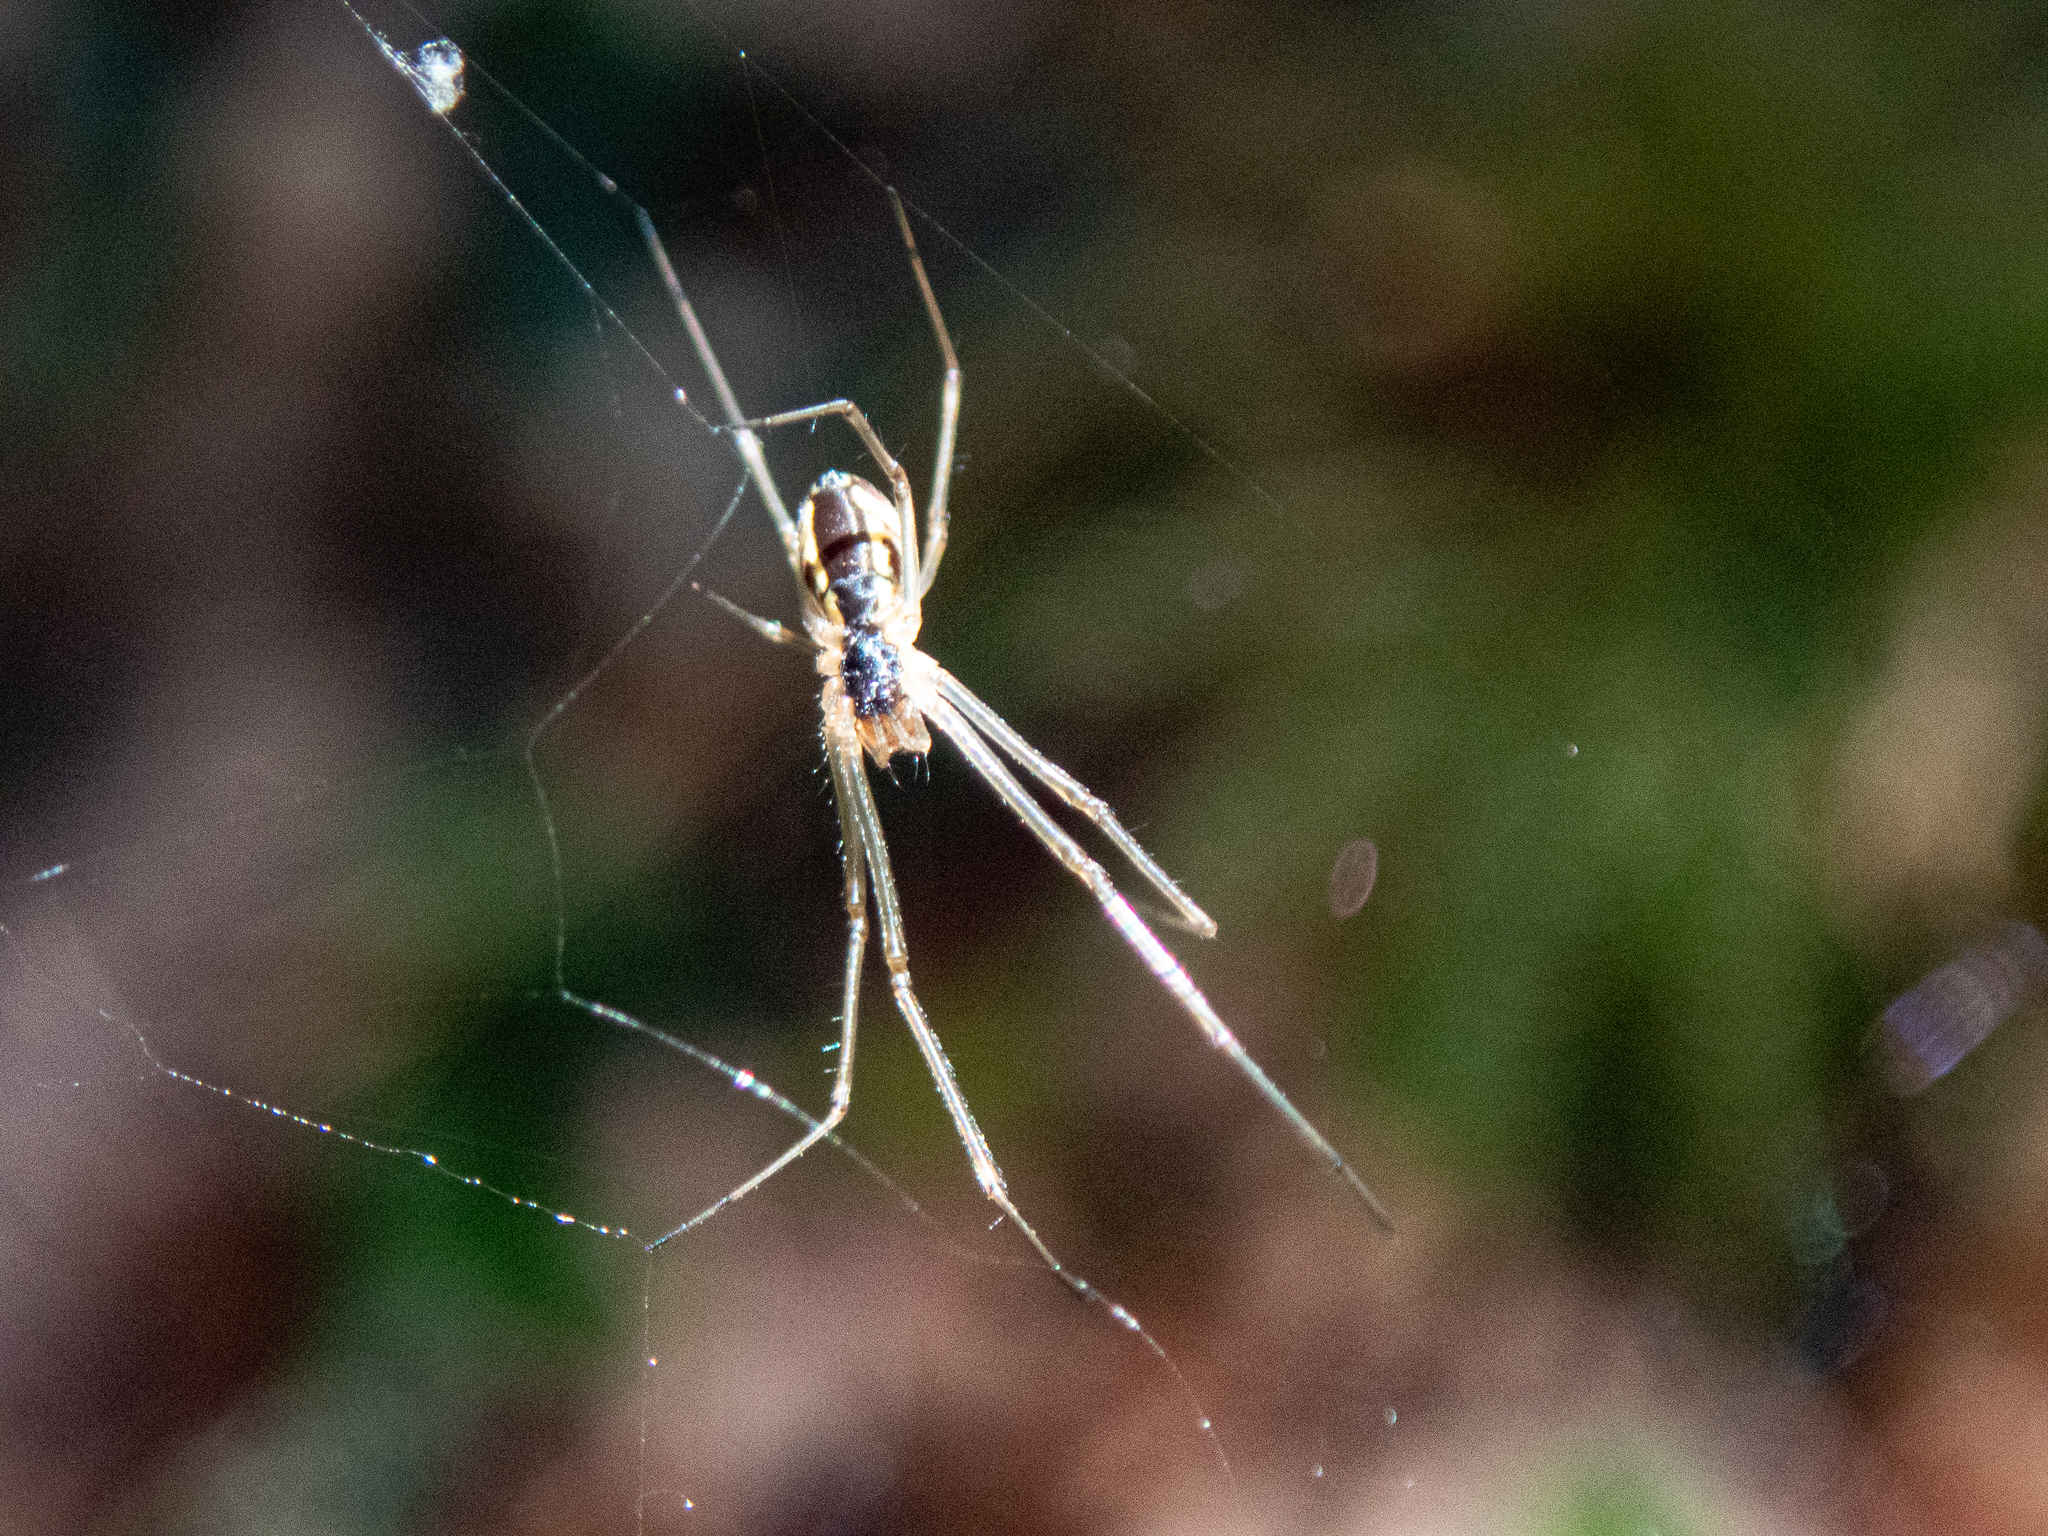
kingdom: Animalia
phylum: Arthropoda
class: Arachnida
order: Araneae
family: Linyphiidae
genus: Neriene
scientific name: Neriene radiata
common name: Filmy dome spider
